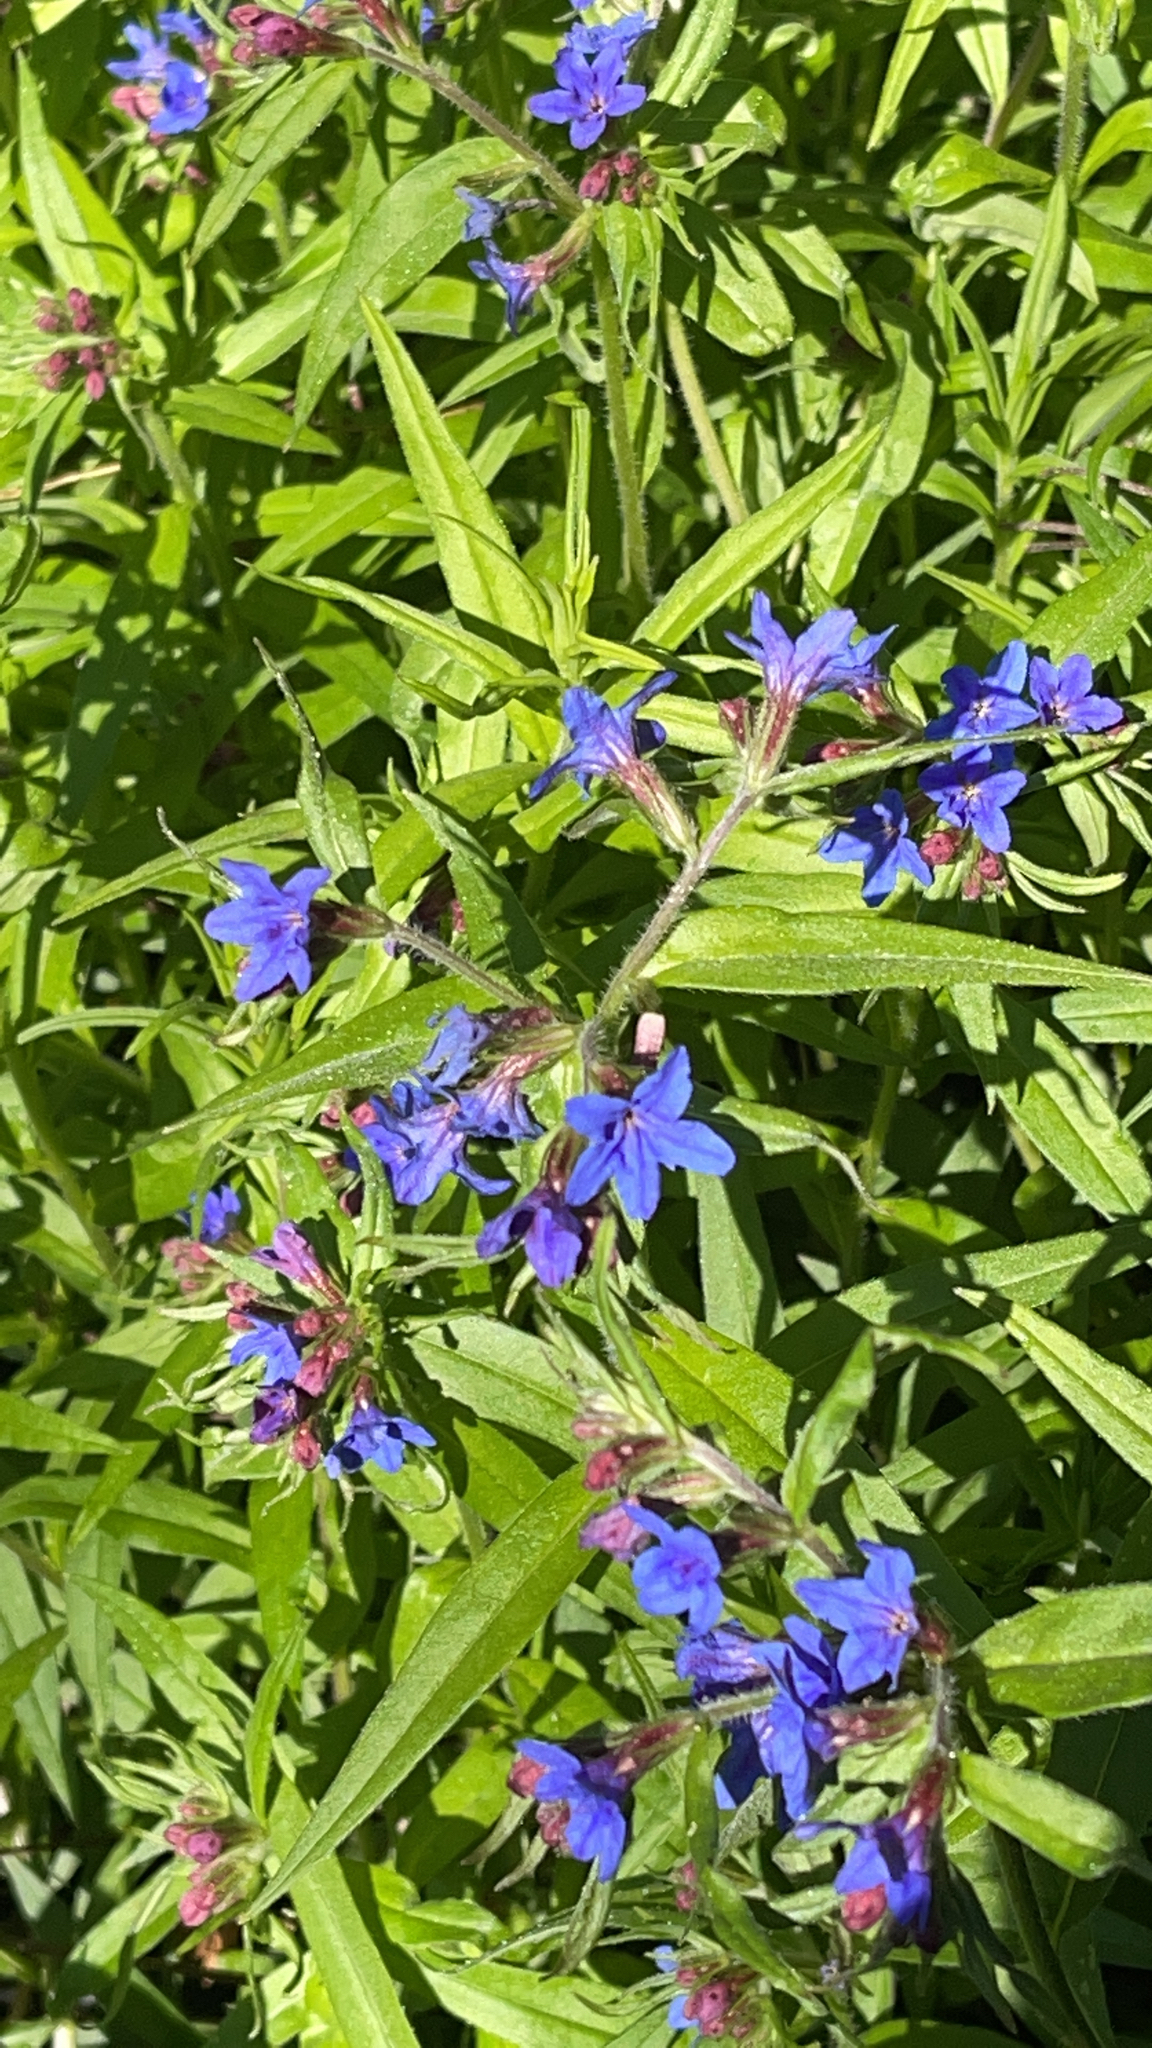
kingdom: Plantae
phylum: Tracheophyta
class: Magnoliopsida
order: Boraginales
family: Boraginaceae
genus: Aegonychon
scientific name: Aegonychon purpurocaeruleum
